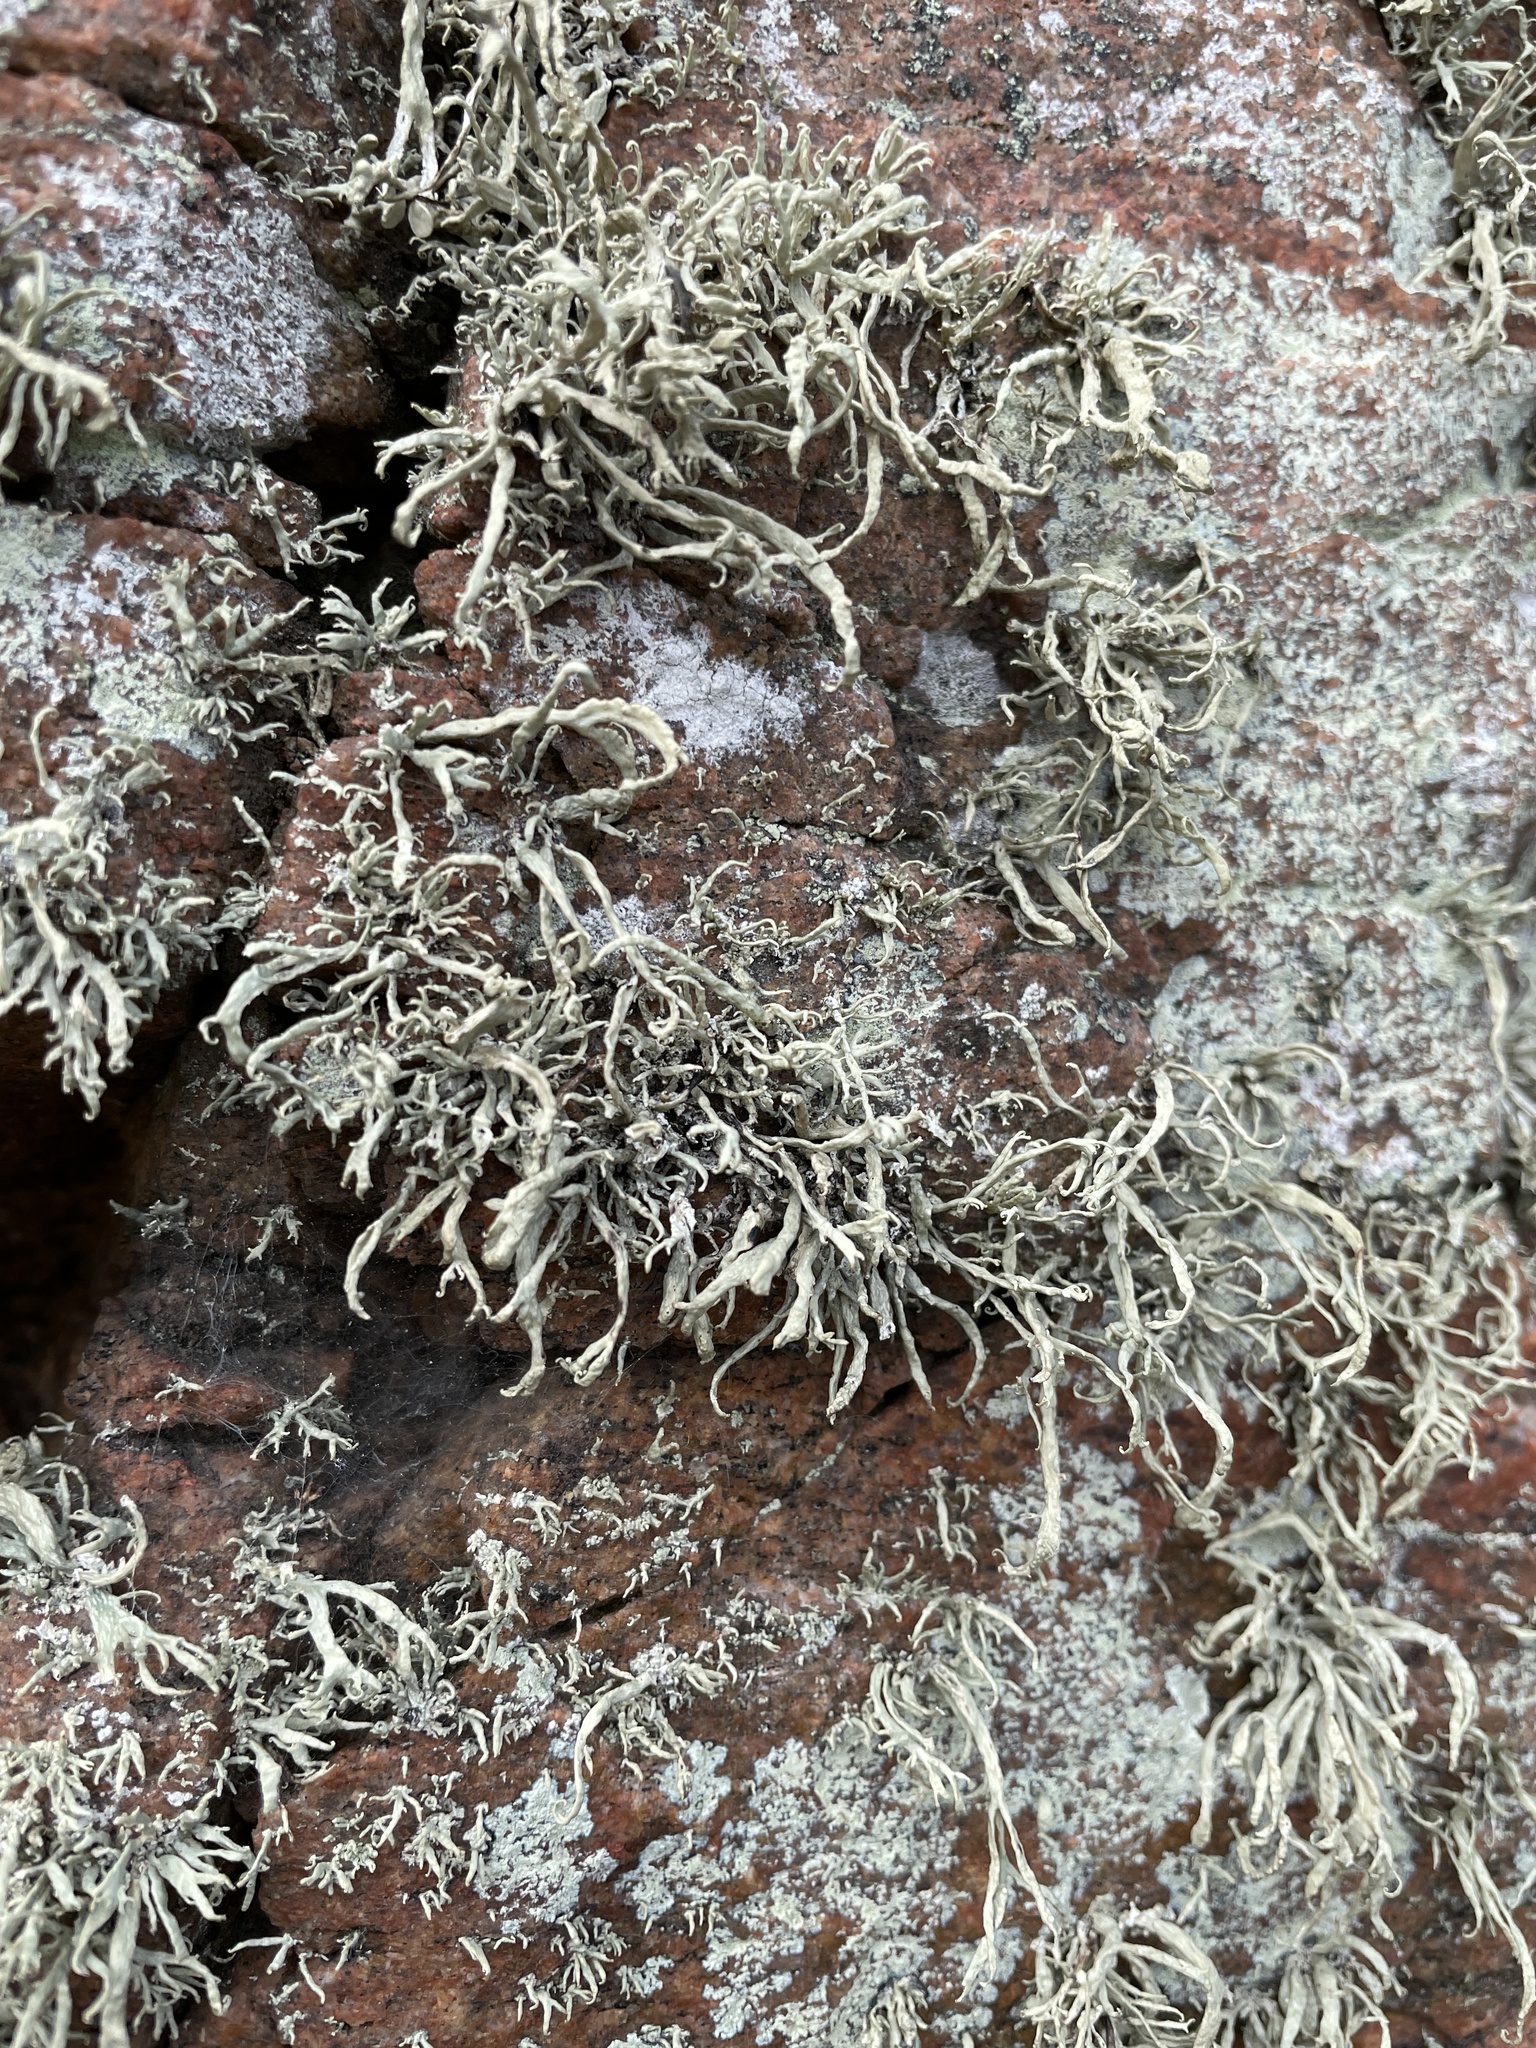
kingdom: Fungi
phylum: Ascomycota
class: Lecanoromycetes
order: Lecanorales
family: Ramalinaceae
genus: Ramalina
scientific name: Ramalina siliquosa
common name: Sea ivory
